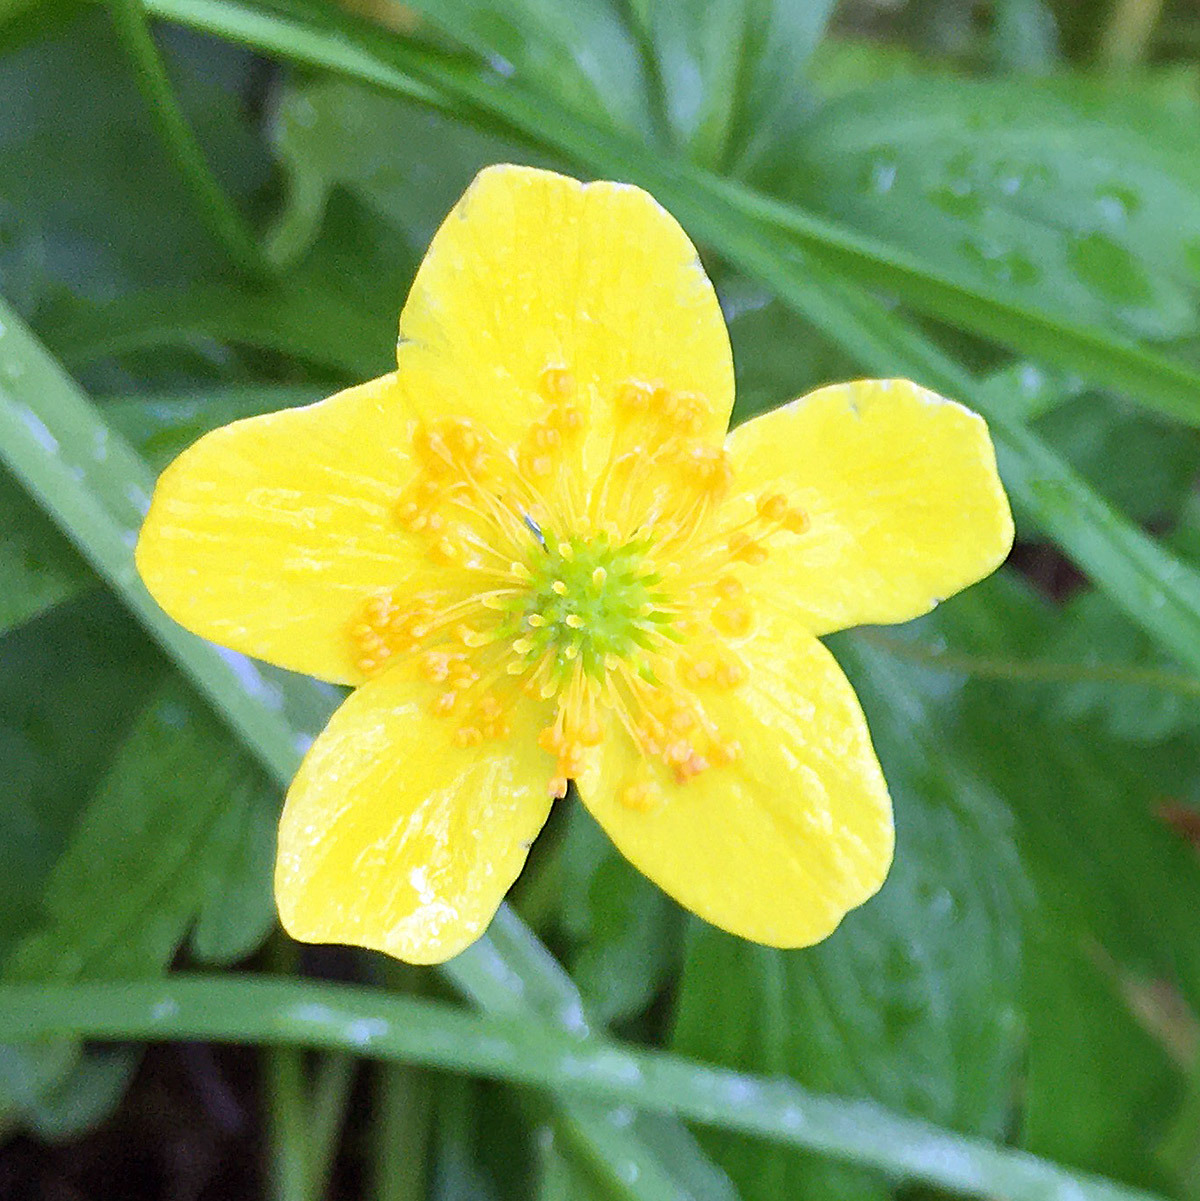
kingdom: Plantae
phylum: Tracheophyta
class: Magnoliopsida
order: Ranunculales
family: Ranunculaceae
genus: Anemone
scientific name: Anemone ranunculoides
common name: Yellow anemone
